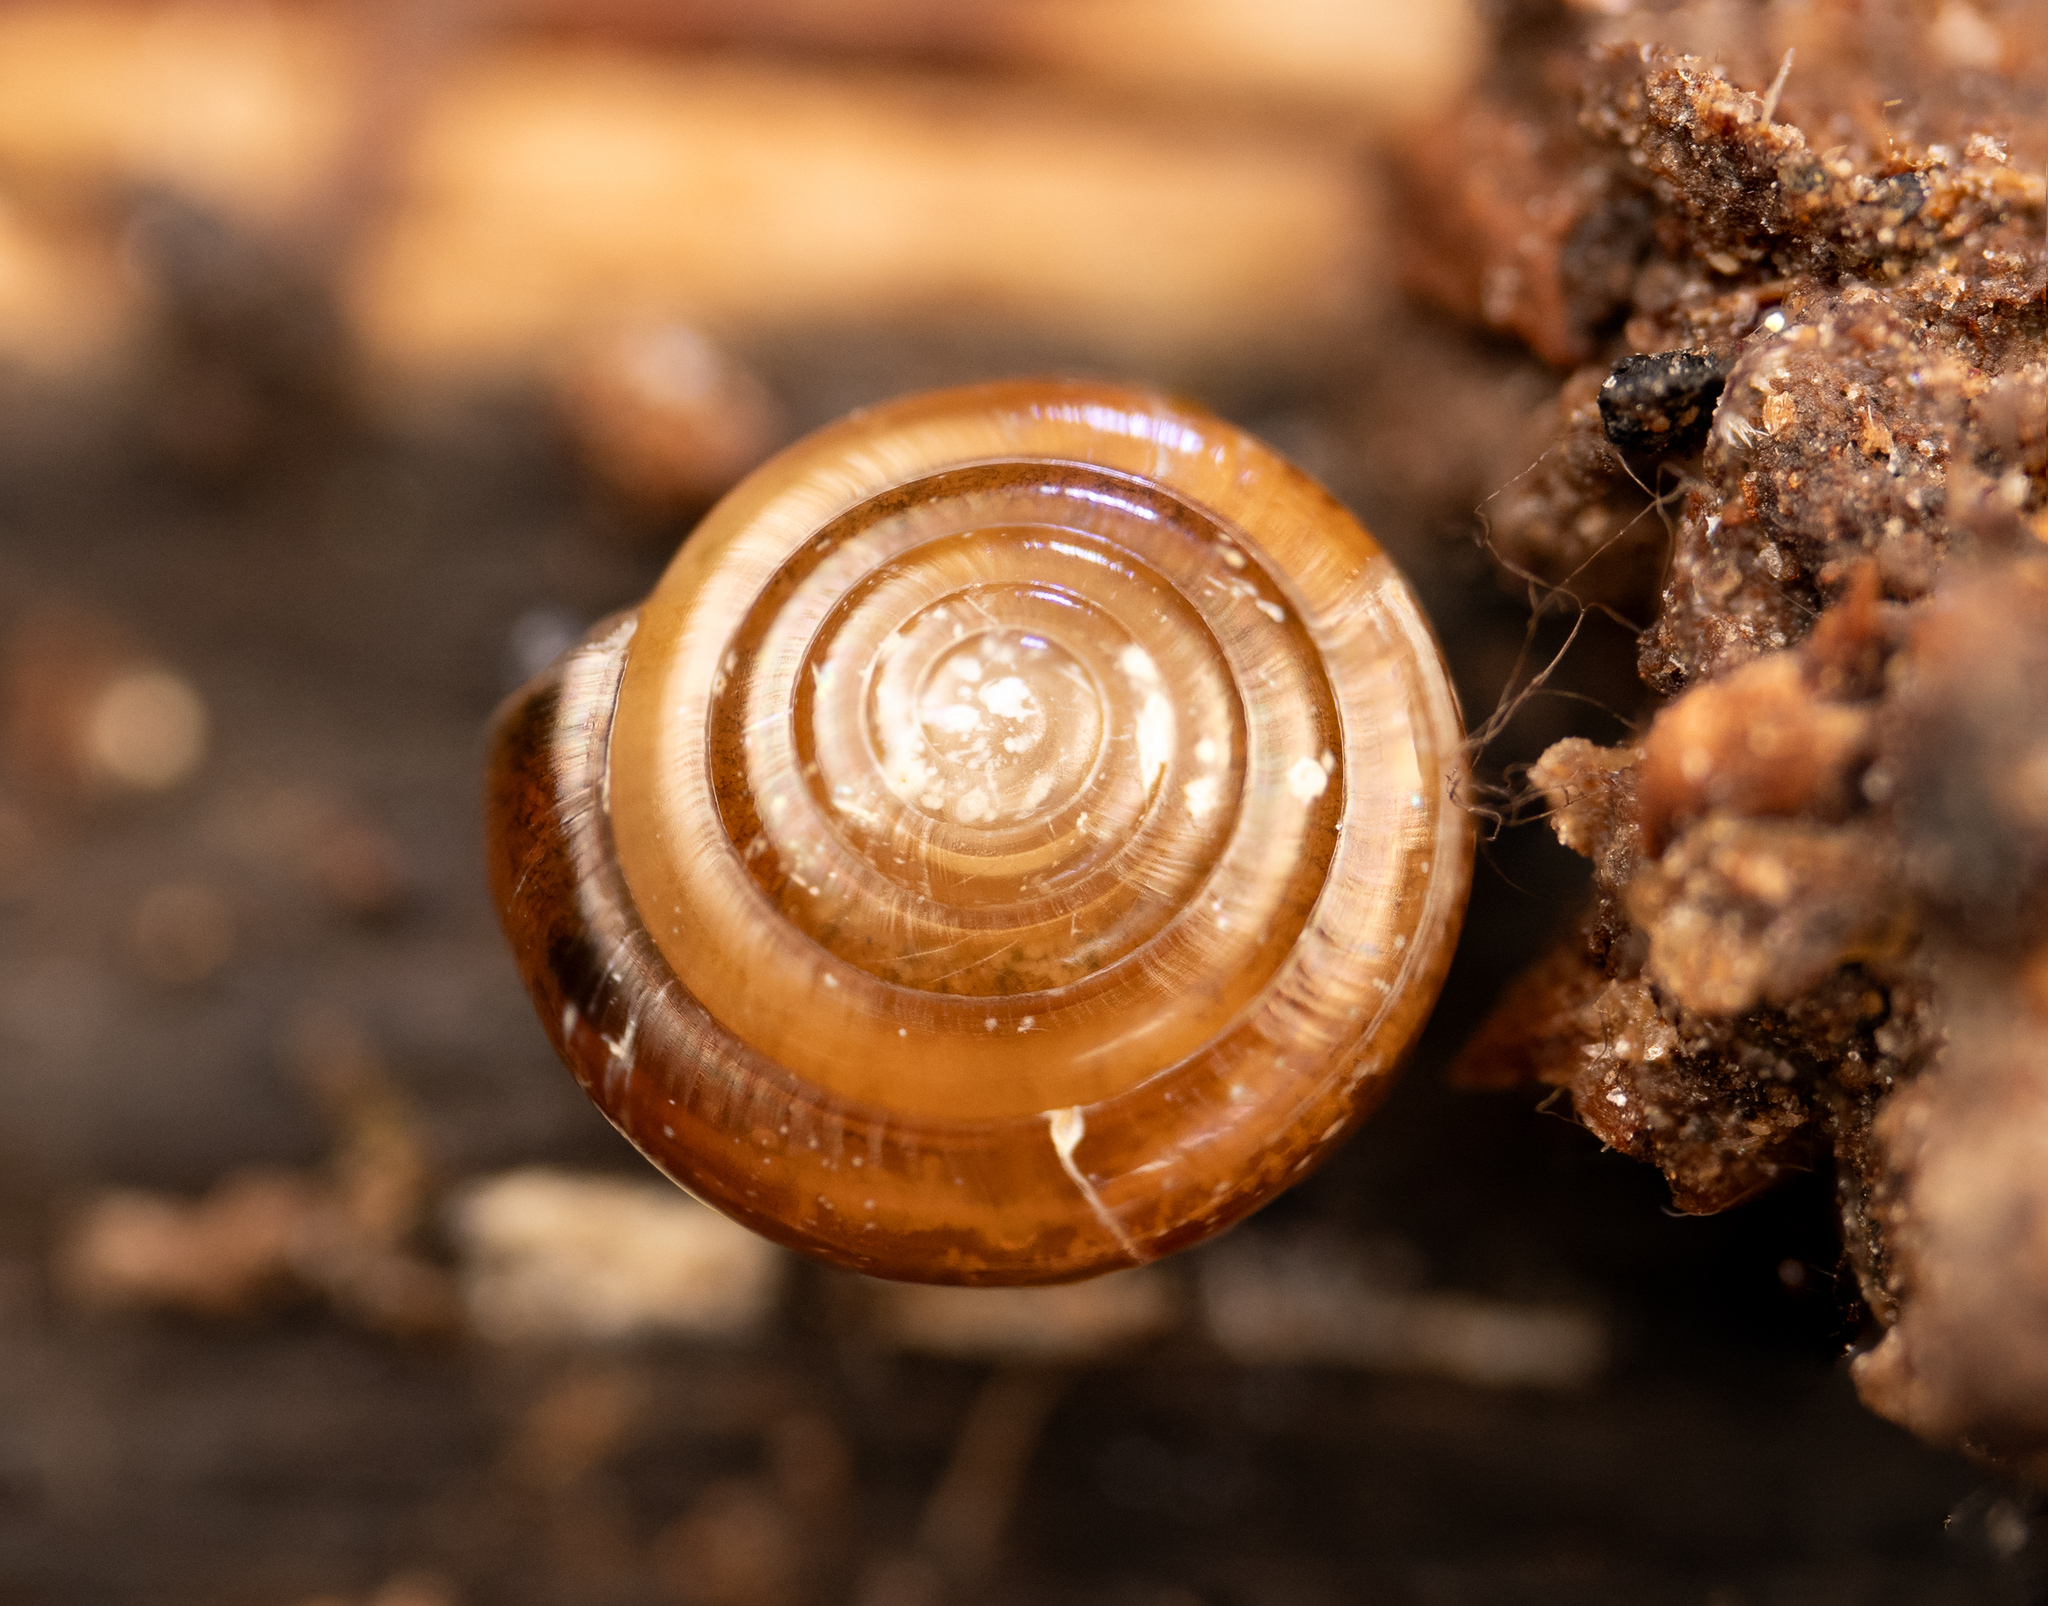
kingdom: Animalia
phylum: Mollusca
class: Gastropoda
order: Stylommatophora
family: Pristilomatidae
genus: Pristiloma
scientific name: Pristiloma idahoense
